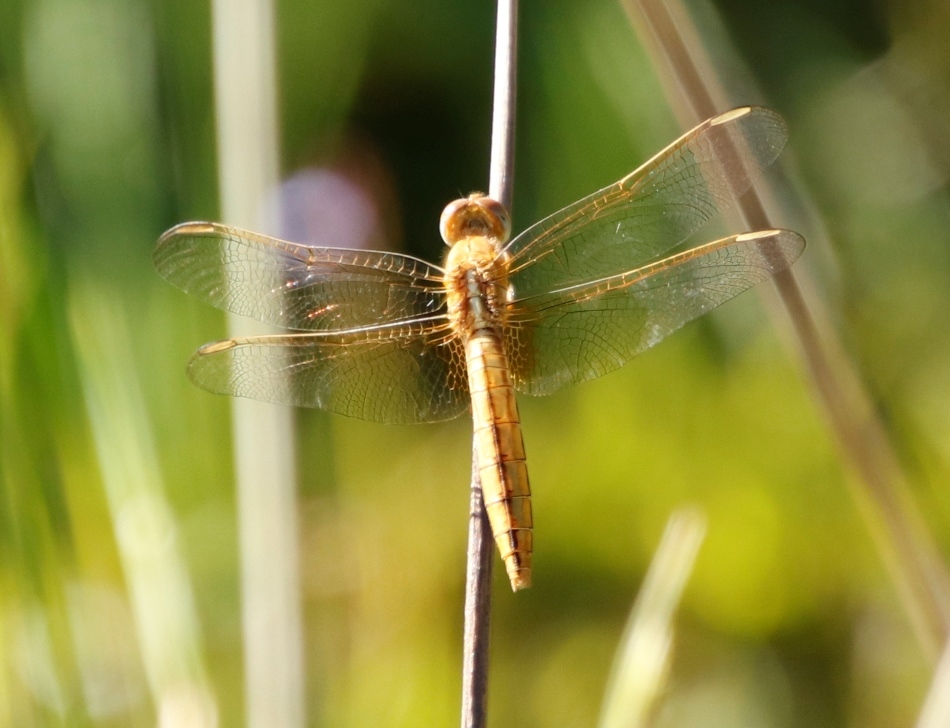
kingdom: Animalia
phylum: Arthropoda
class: Insecta
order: Odonata
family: Libellulidae
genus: Crocothemis
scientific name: Crocothemis erythraea
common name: Scarlet dragonfly
